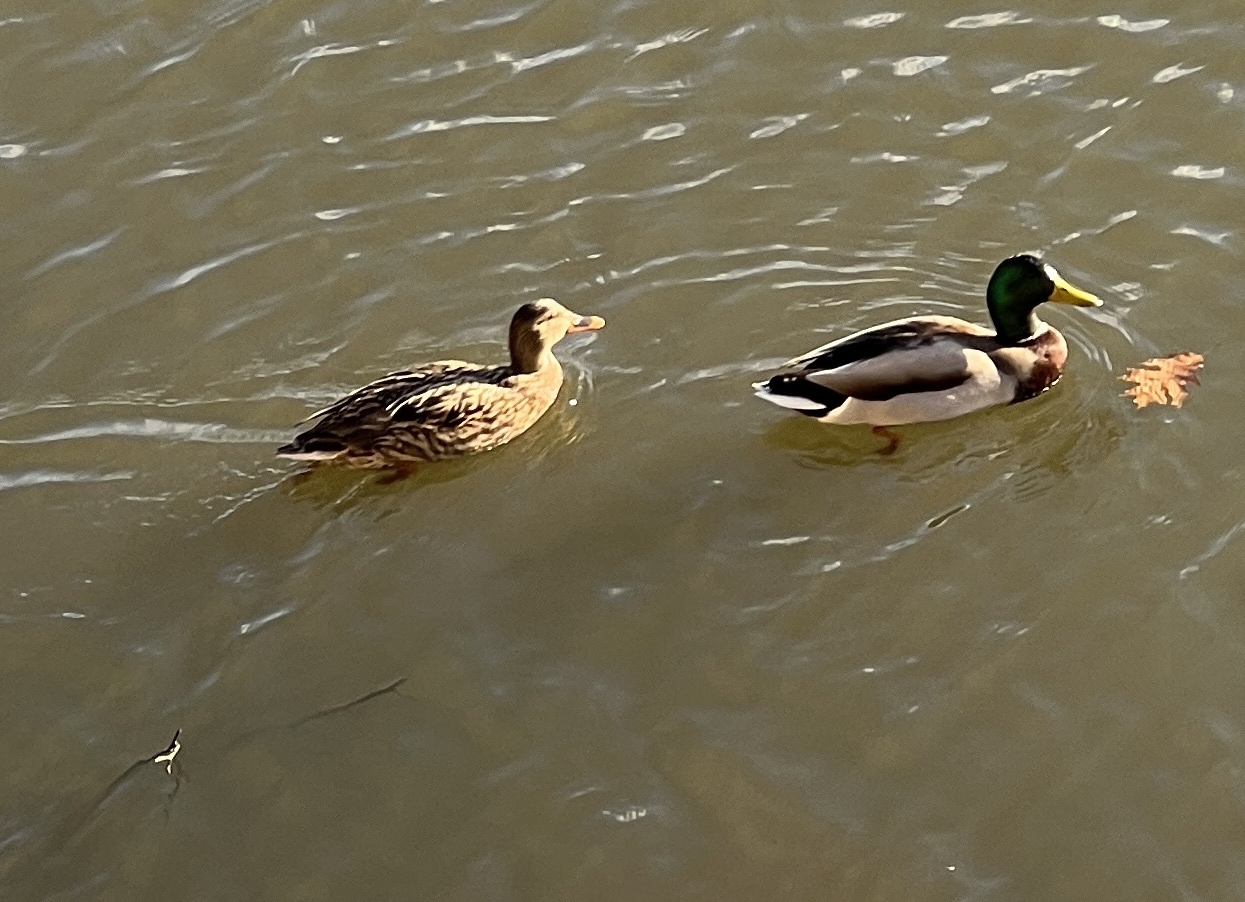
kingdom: Animalia
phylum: Chordata
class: Aves
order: Anseriformes
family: Anatidae
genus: Anas
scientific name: Anas platyrhynchos
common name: Mallard
